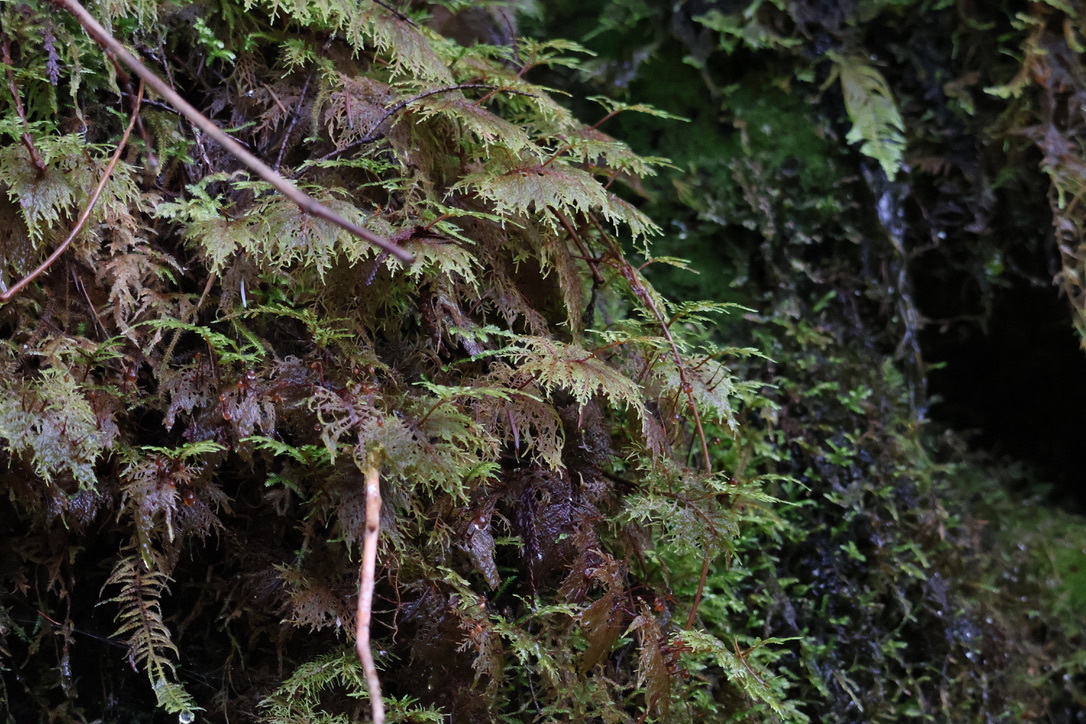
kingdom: Plantae
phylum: Bryophyta
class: Bryopsida
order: Hypnales
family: Hylocomiaceae
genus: Hylocomium
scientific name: Hylocomium splendens
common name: Stairstep moss
